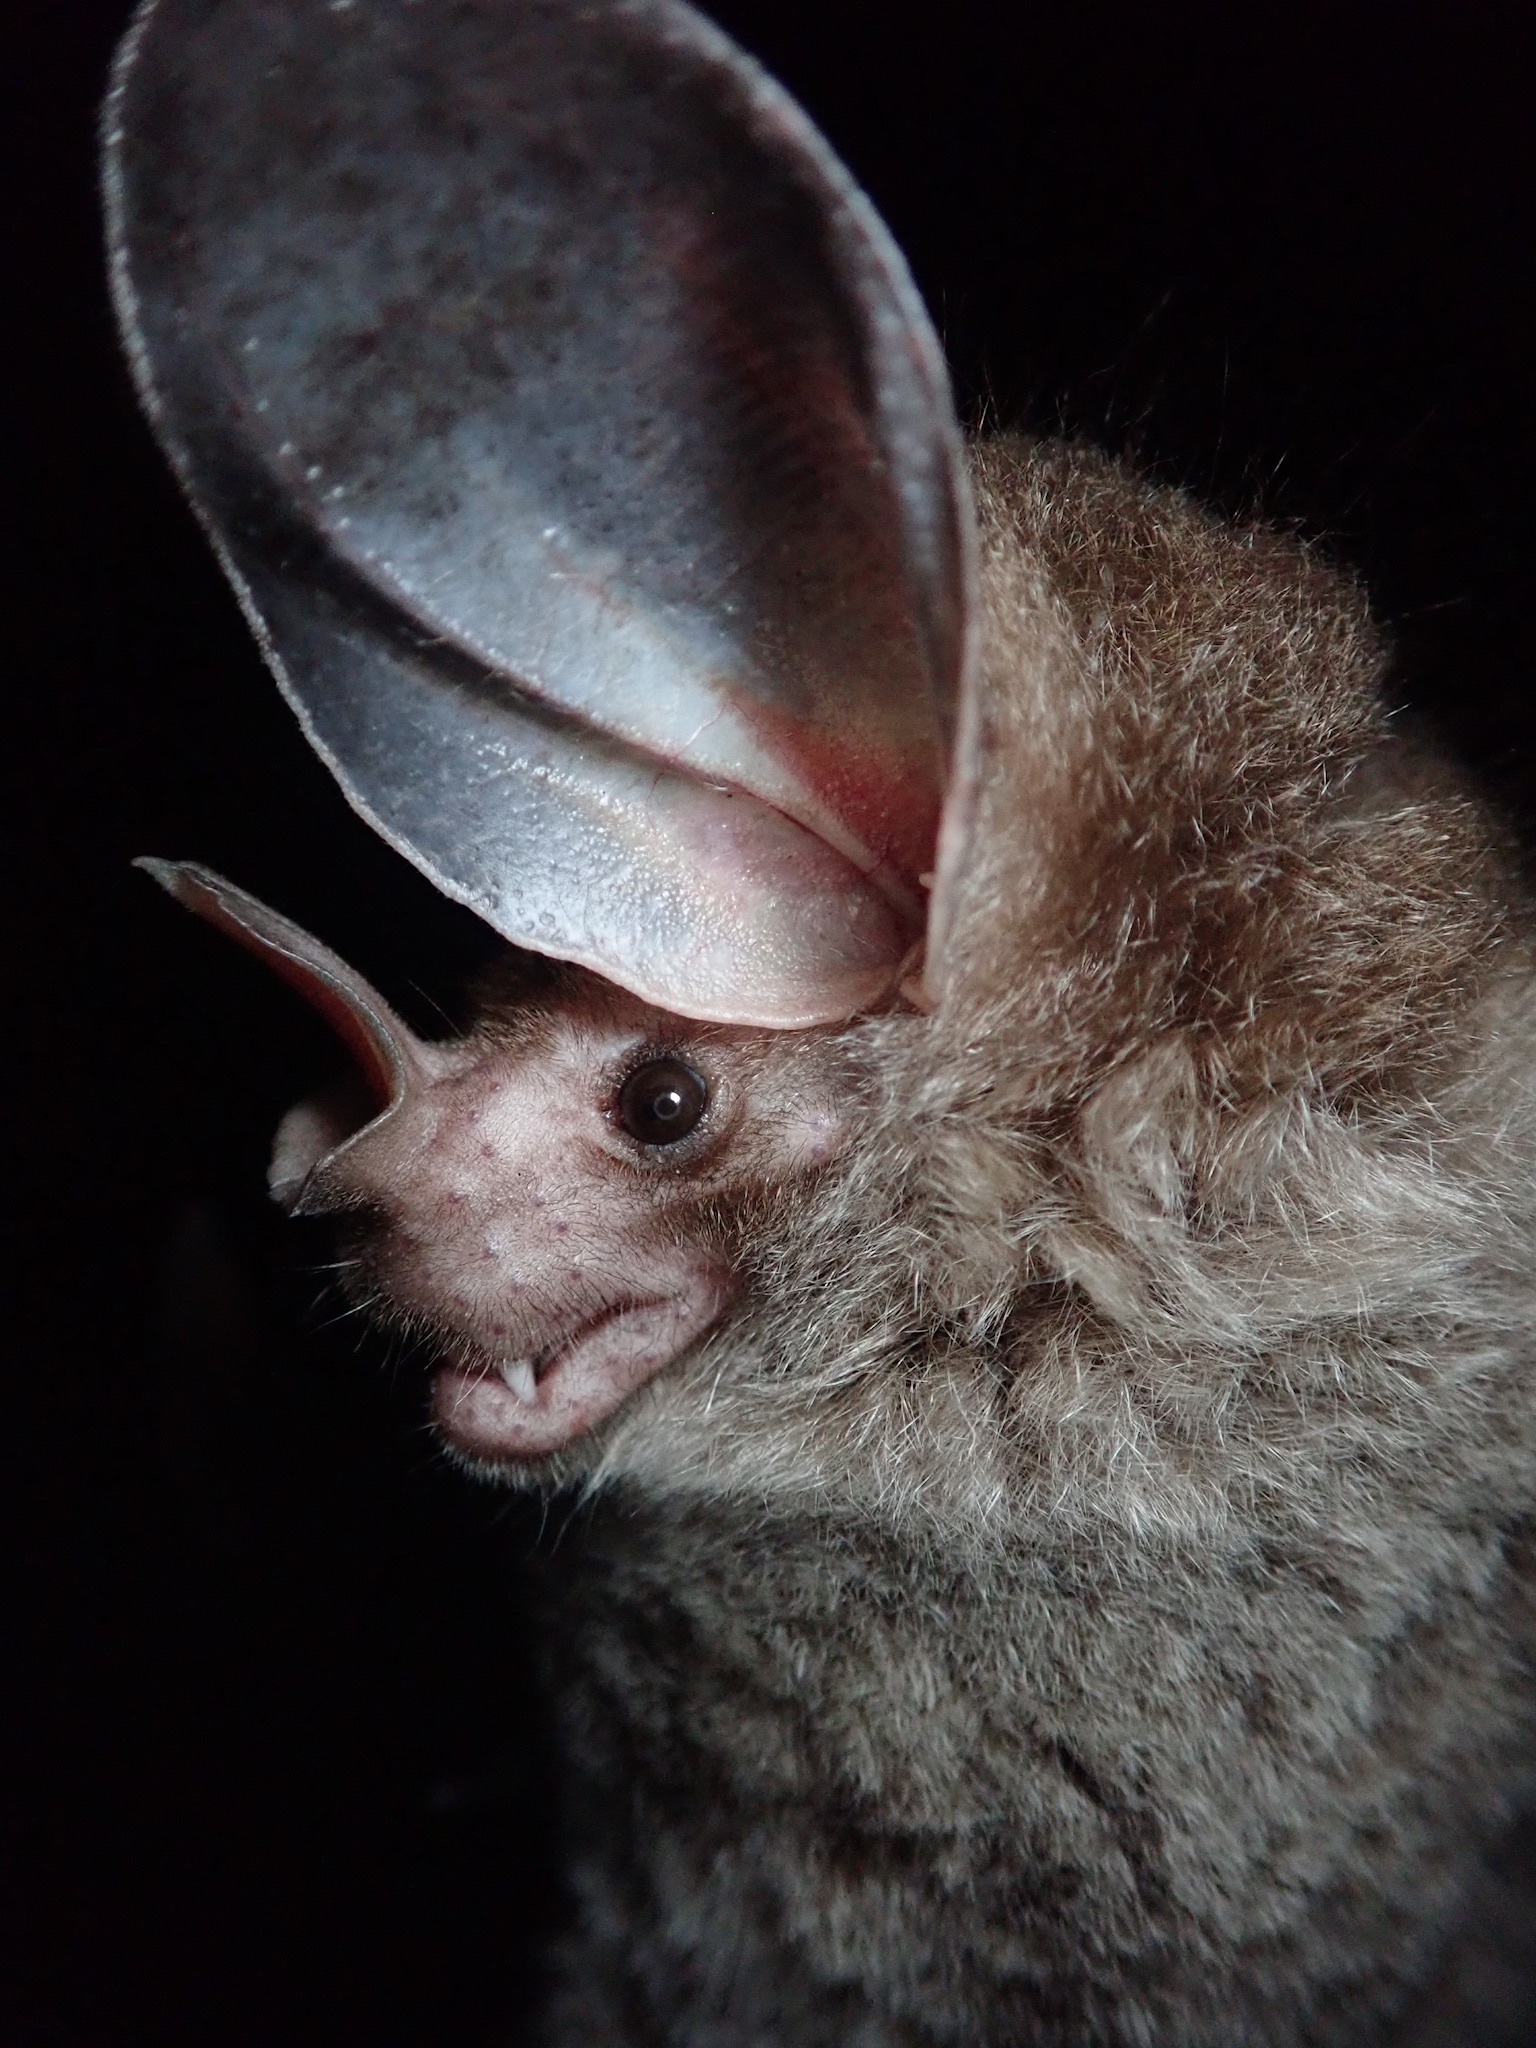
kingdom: Animalia
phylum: Chordata
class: Mammalia
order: Chiroptera
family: Phyllostomidae
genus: Chrotopterus
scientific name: Chrotopterus auritus
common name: Woolly false vampire bat
